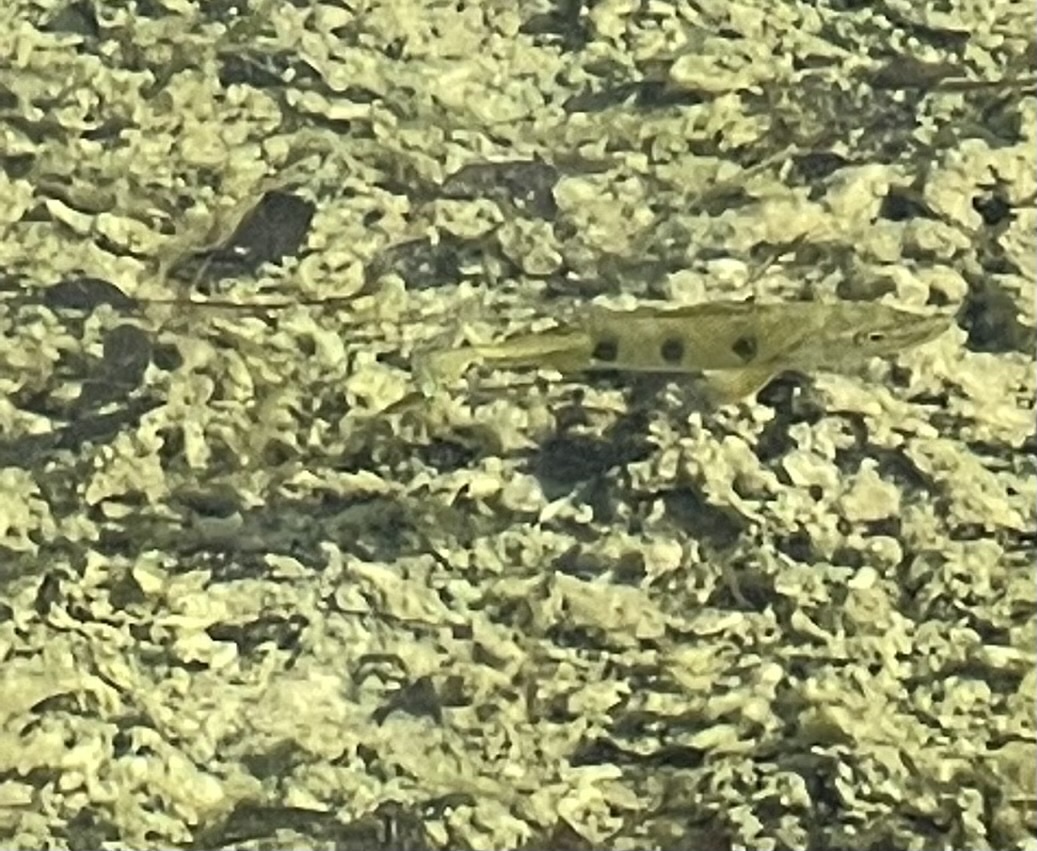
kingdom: Animalia
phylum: Chordata
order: Perciformes
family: Cichlidae
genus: Cichla
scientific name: Cichla ocellaris
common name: Peacock cichlid
